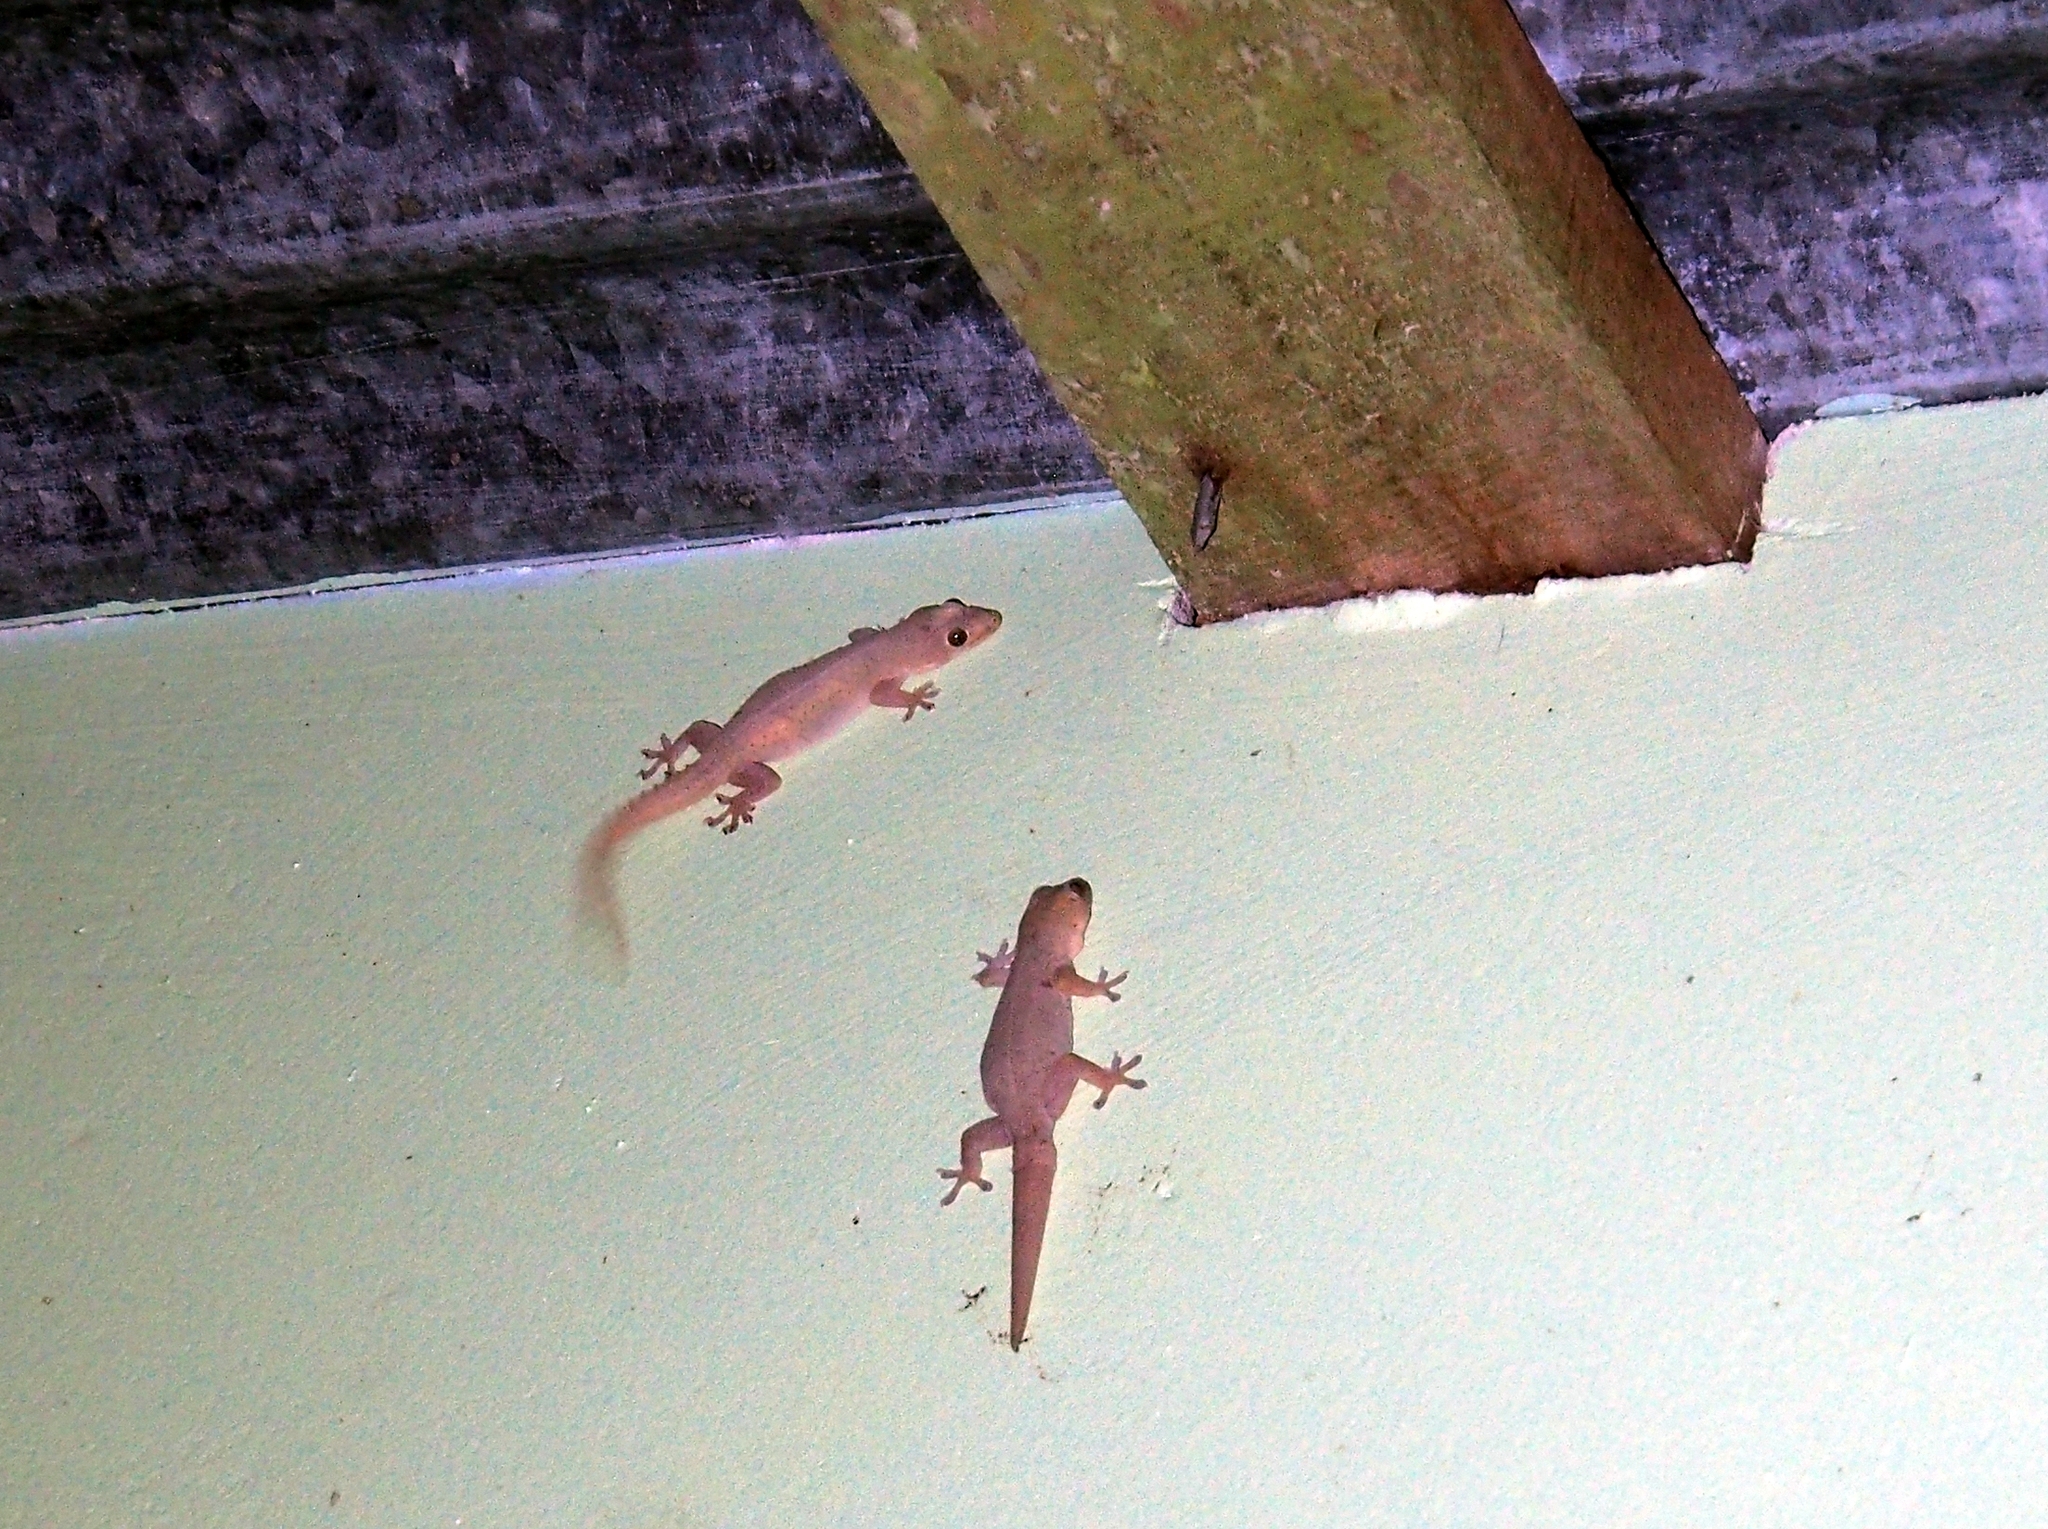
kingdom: Animalia
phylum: Chordata
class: Squamata
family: Gekkonidae
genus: Hemidactylus
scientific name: Hemidactylus frenatus
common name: Common house gecko
